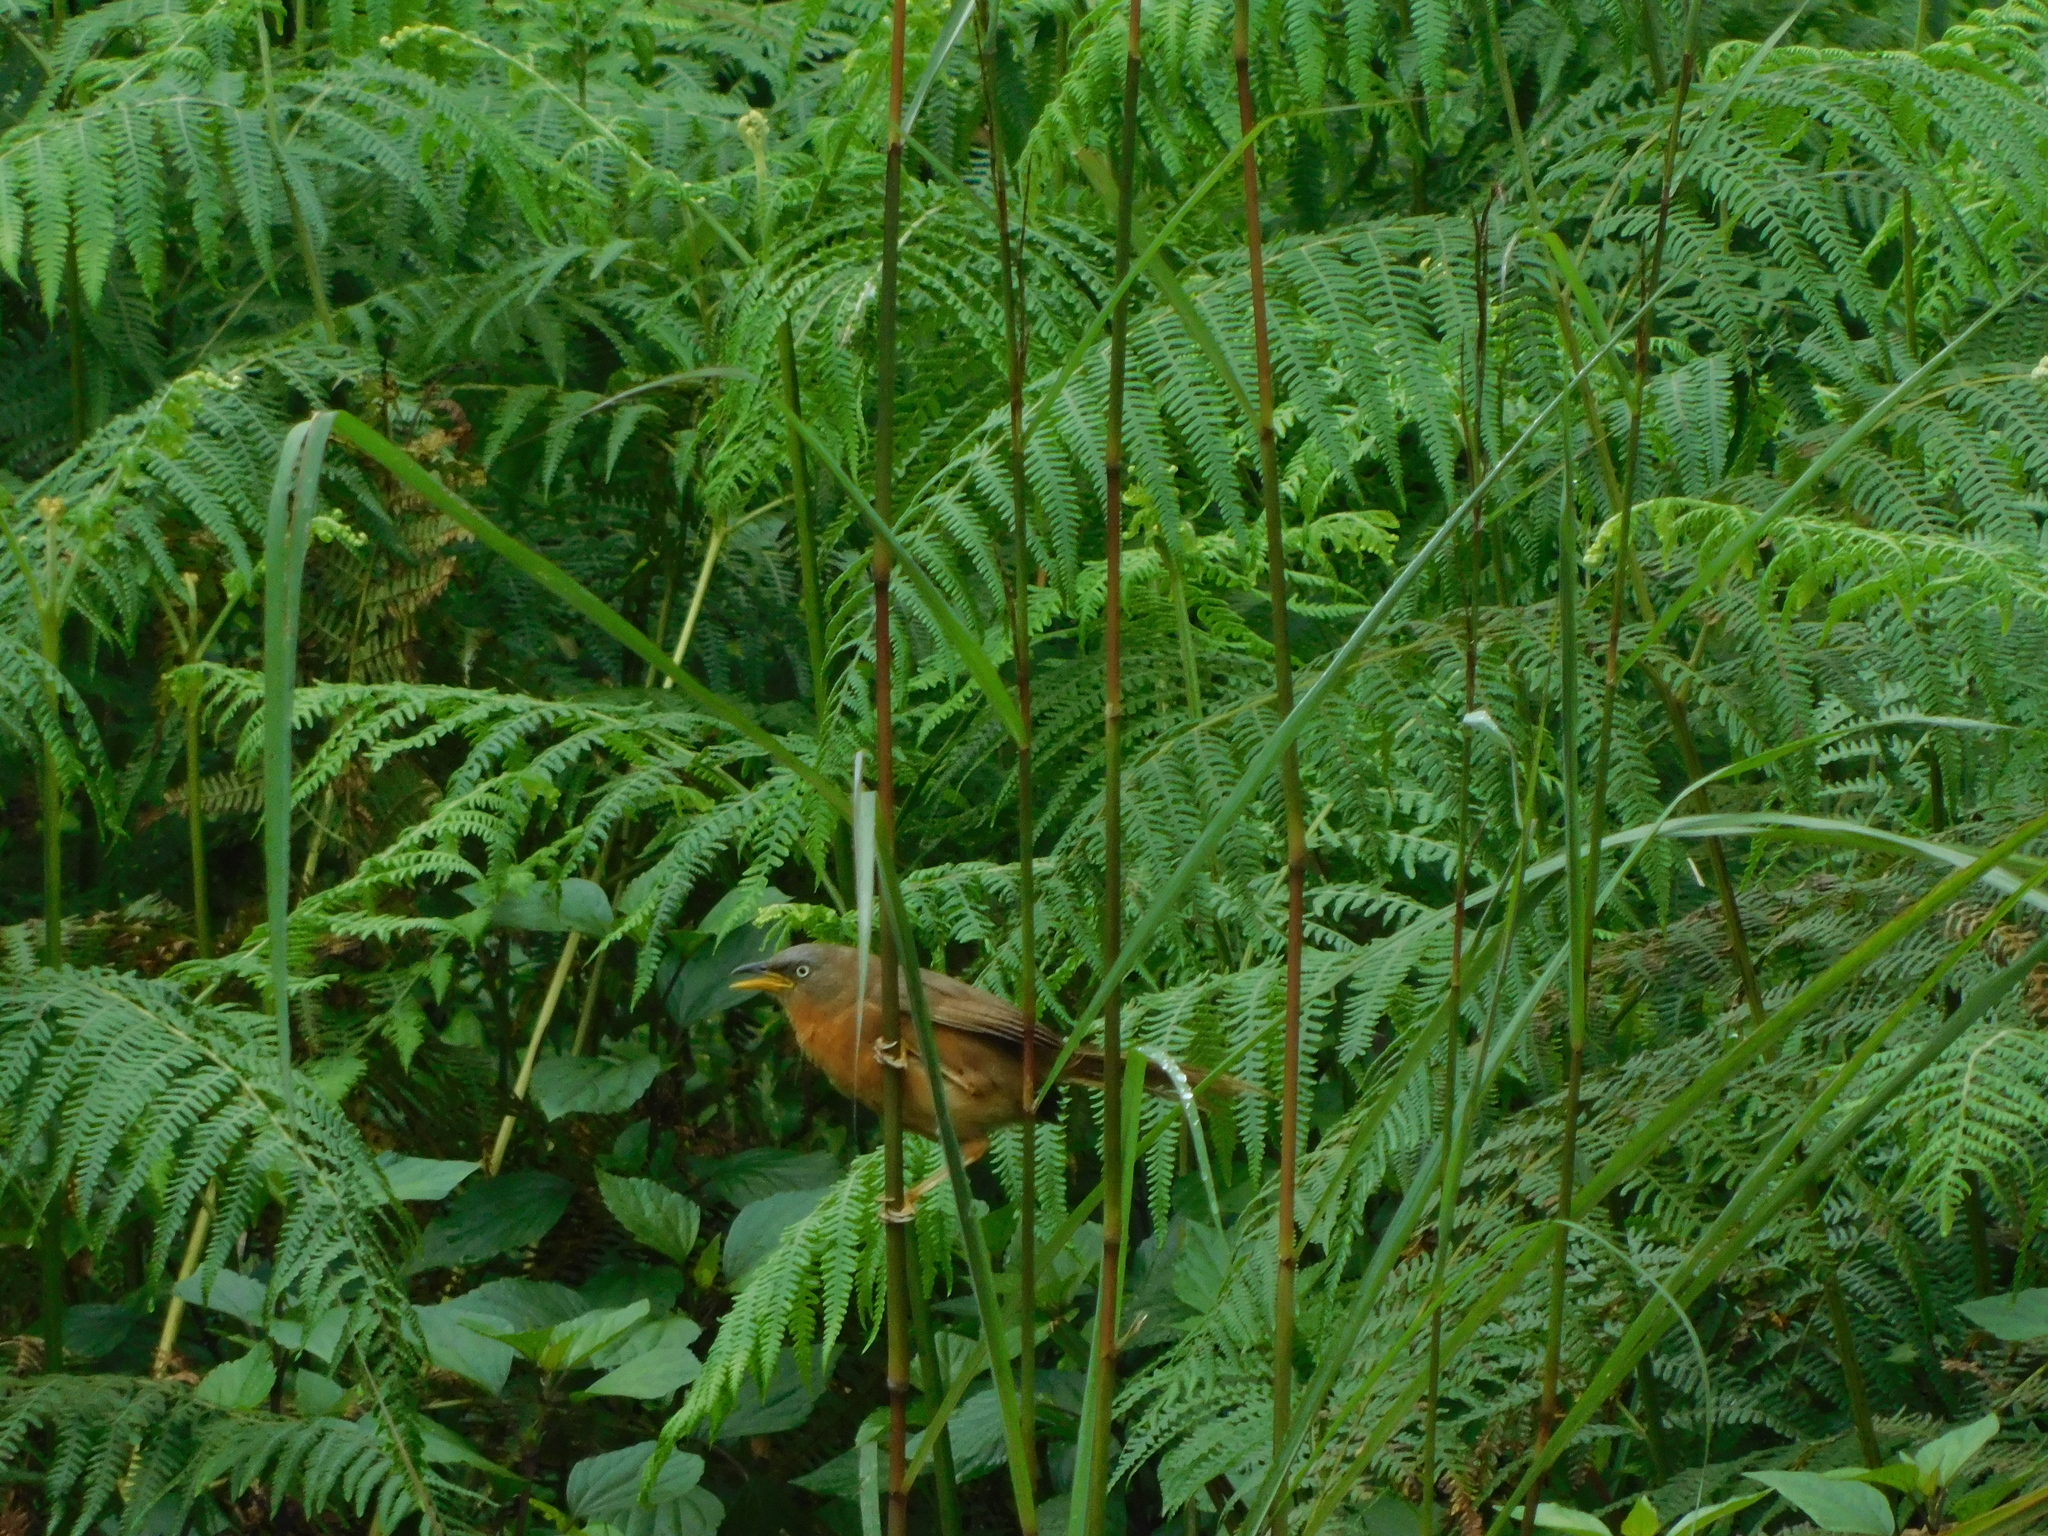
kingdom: Animalia
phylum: Chordata
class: Aves
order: Passeriformes
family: Leiothrichidae
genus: Turdoides
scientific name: Turdoides subrufa
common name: Rufous babbler
